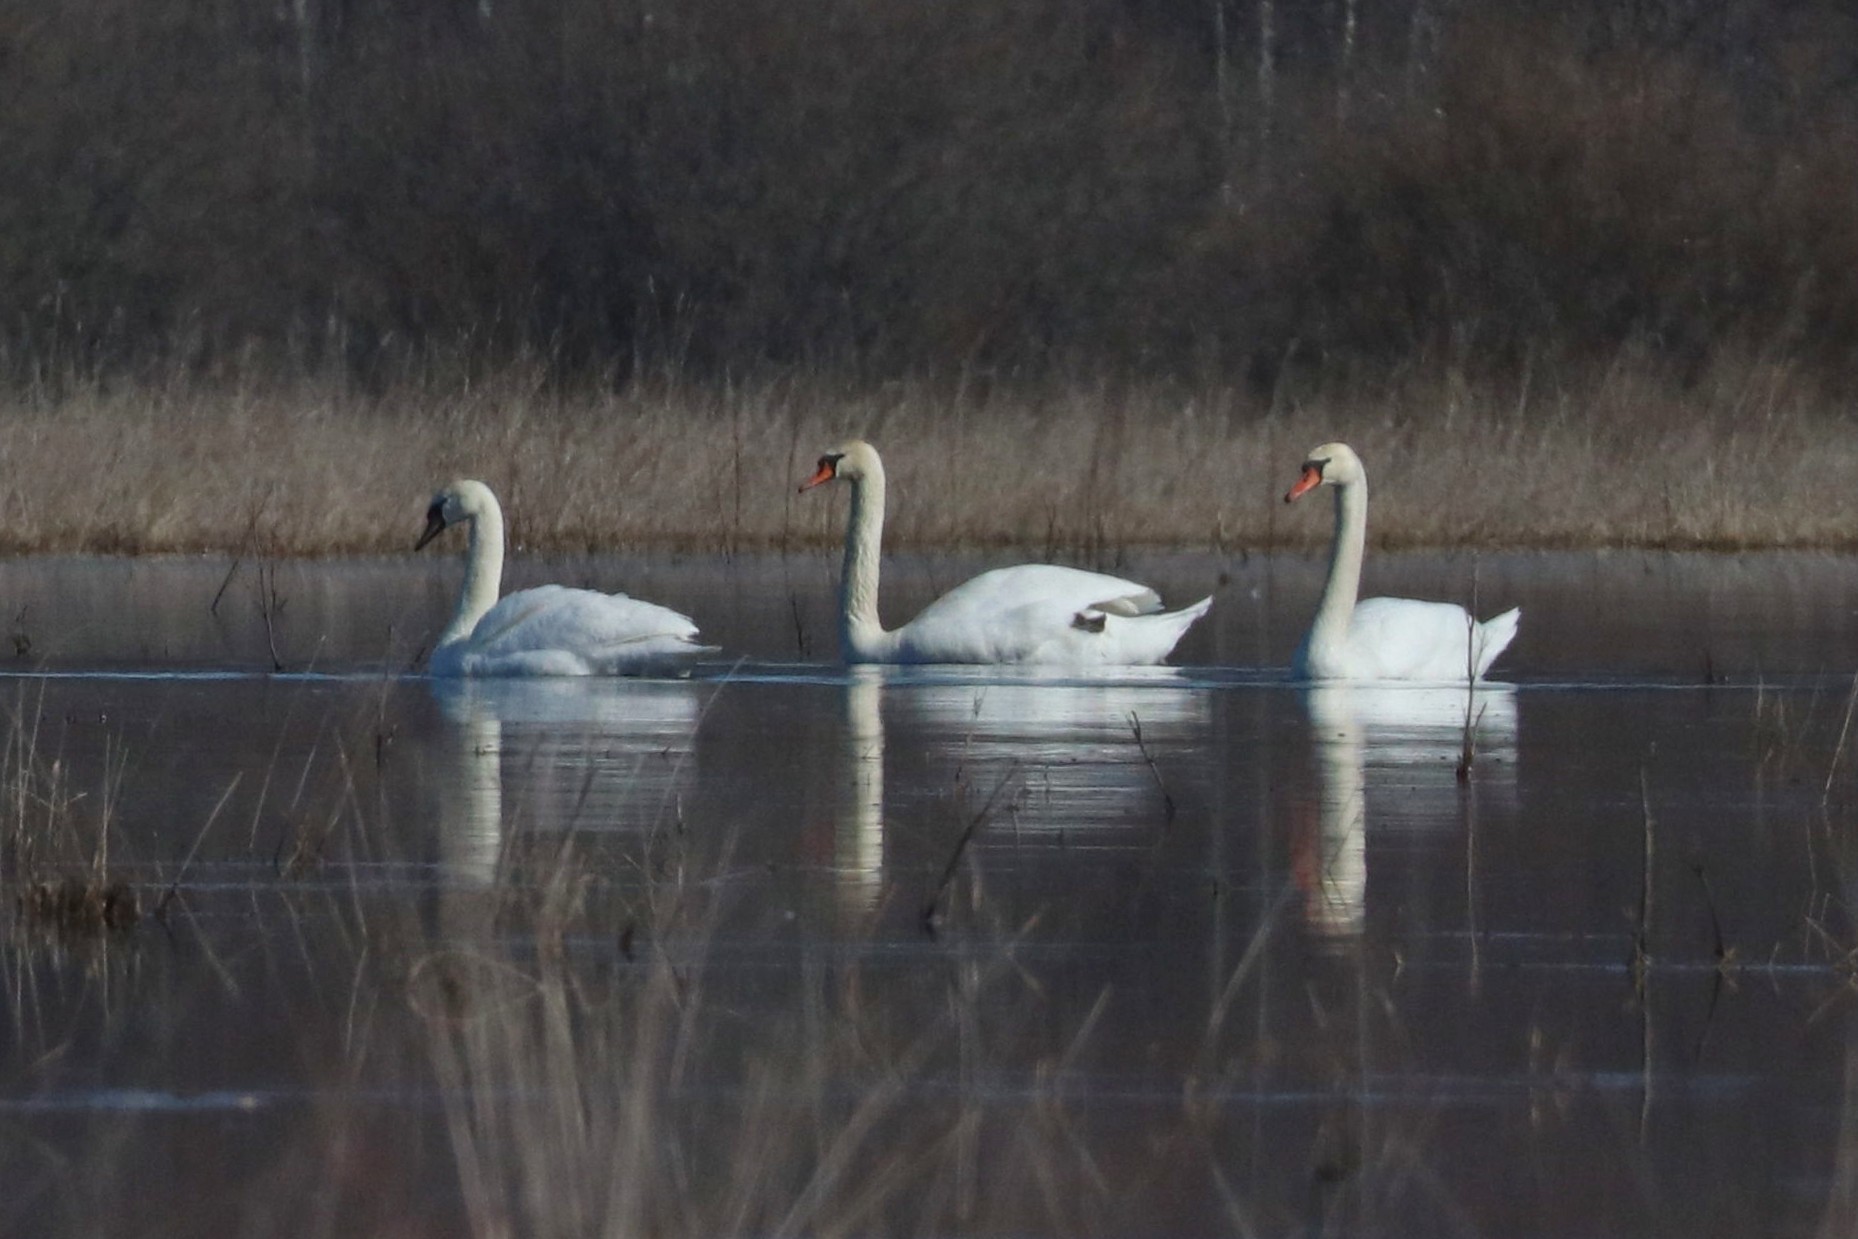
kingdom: Animalia
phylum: Chordata
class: Aves
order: Anseriformes
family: Anatidae
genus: Cygnus
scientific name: Cygnus olor
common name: Mute swan
